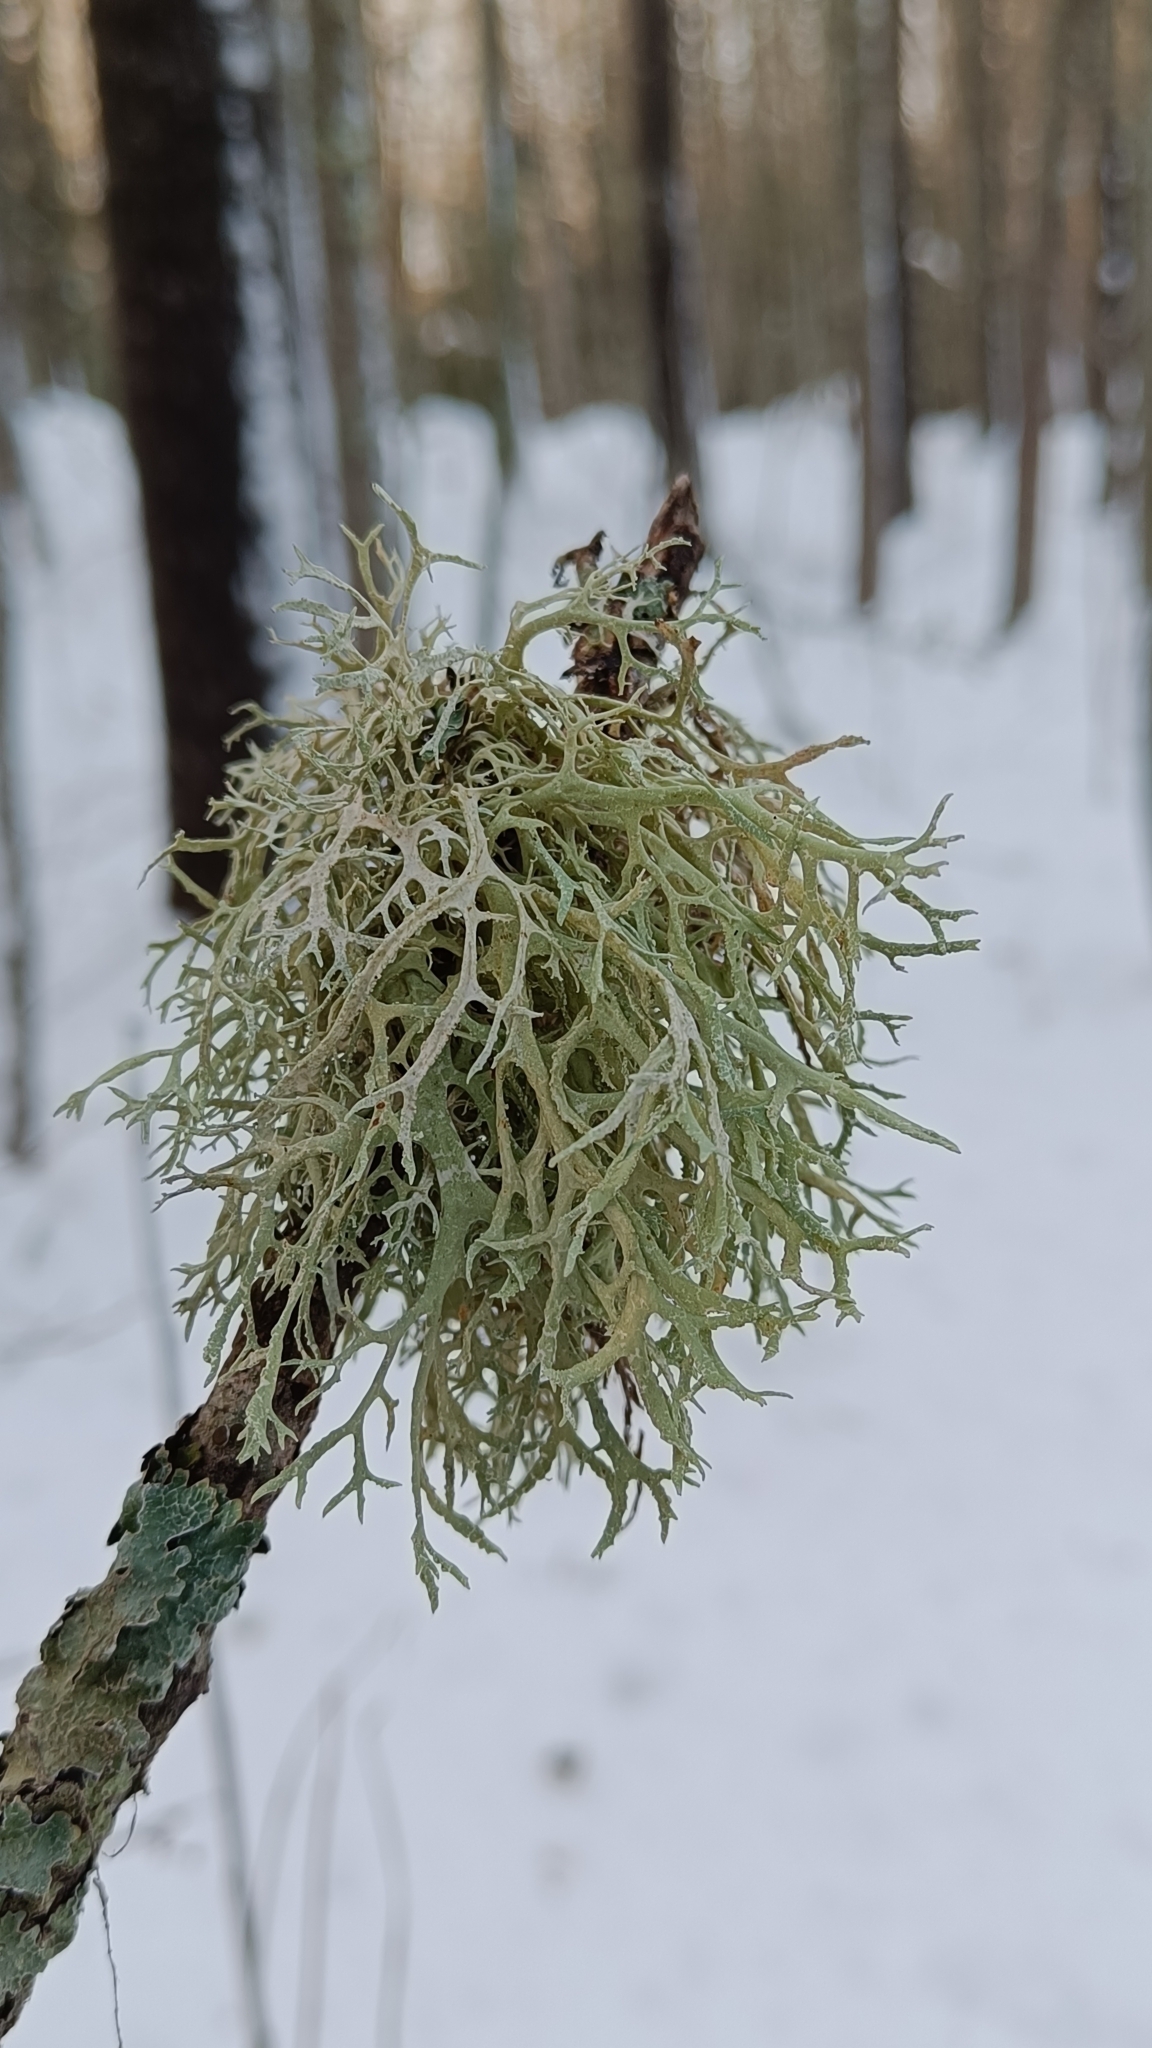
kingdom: Fungi
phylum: Ascomycota
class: Lecanoromycetes
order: Lecanorales
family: Parmeliaceae
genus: Evernia
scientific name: Evernia prunastri
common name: Oak moss
